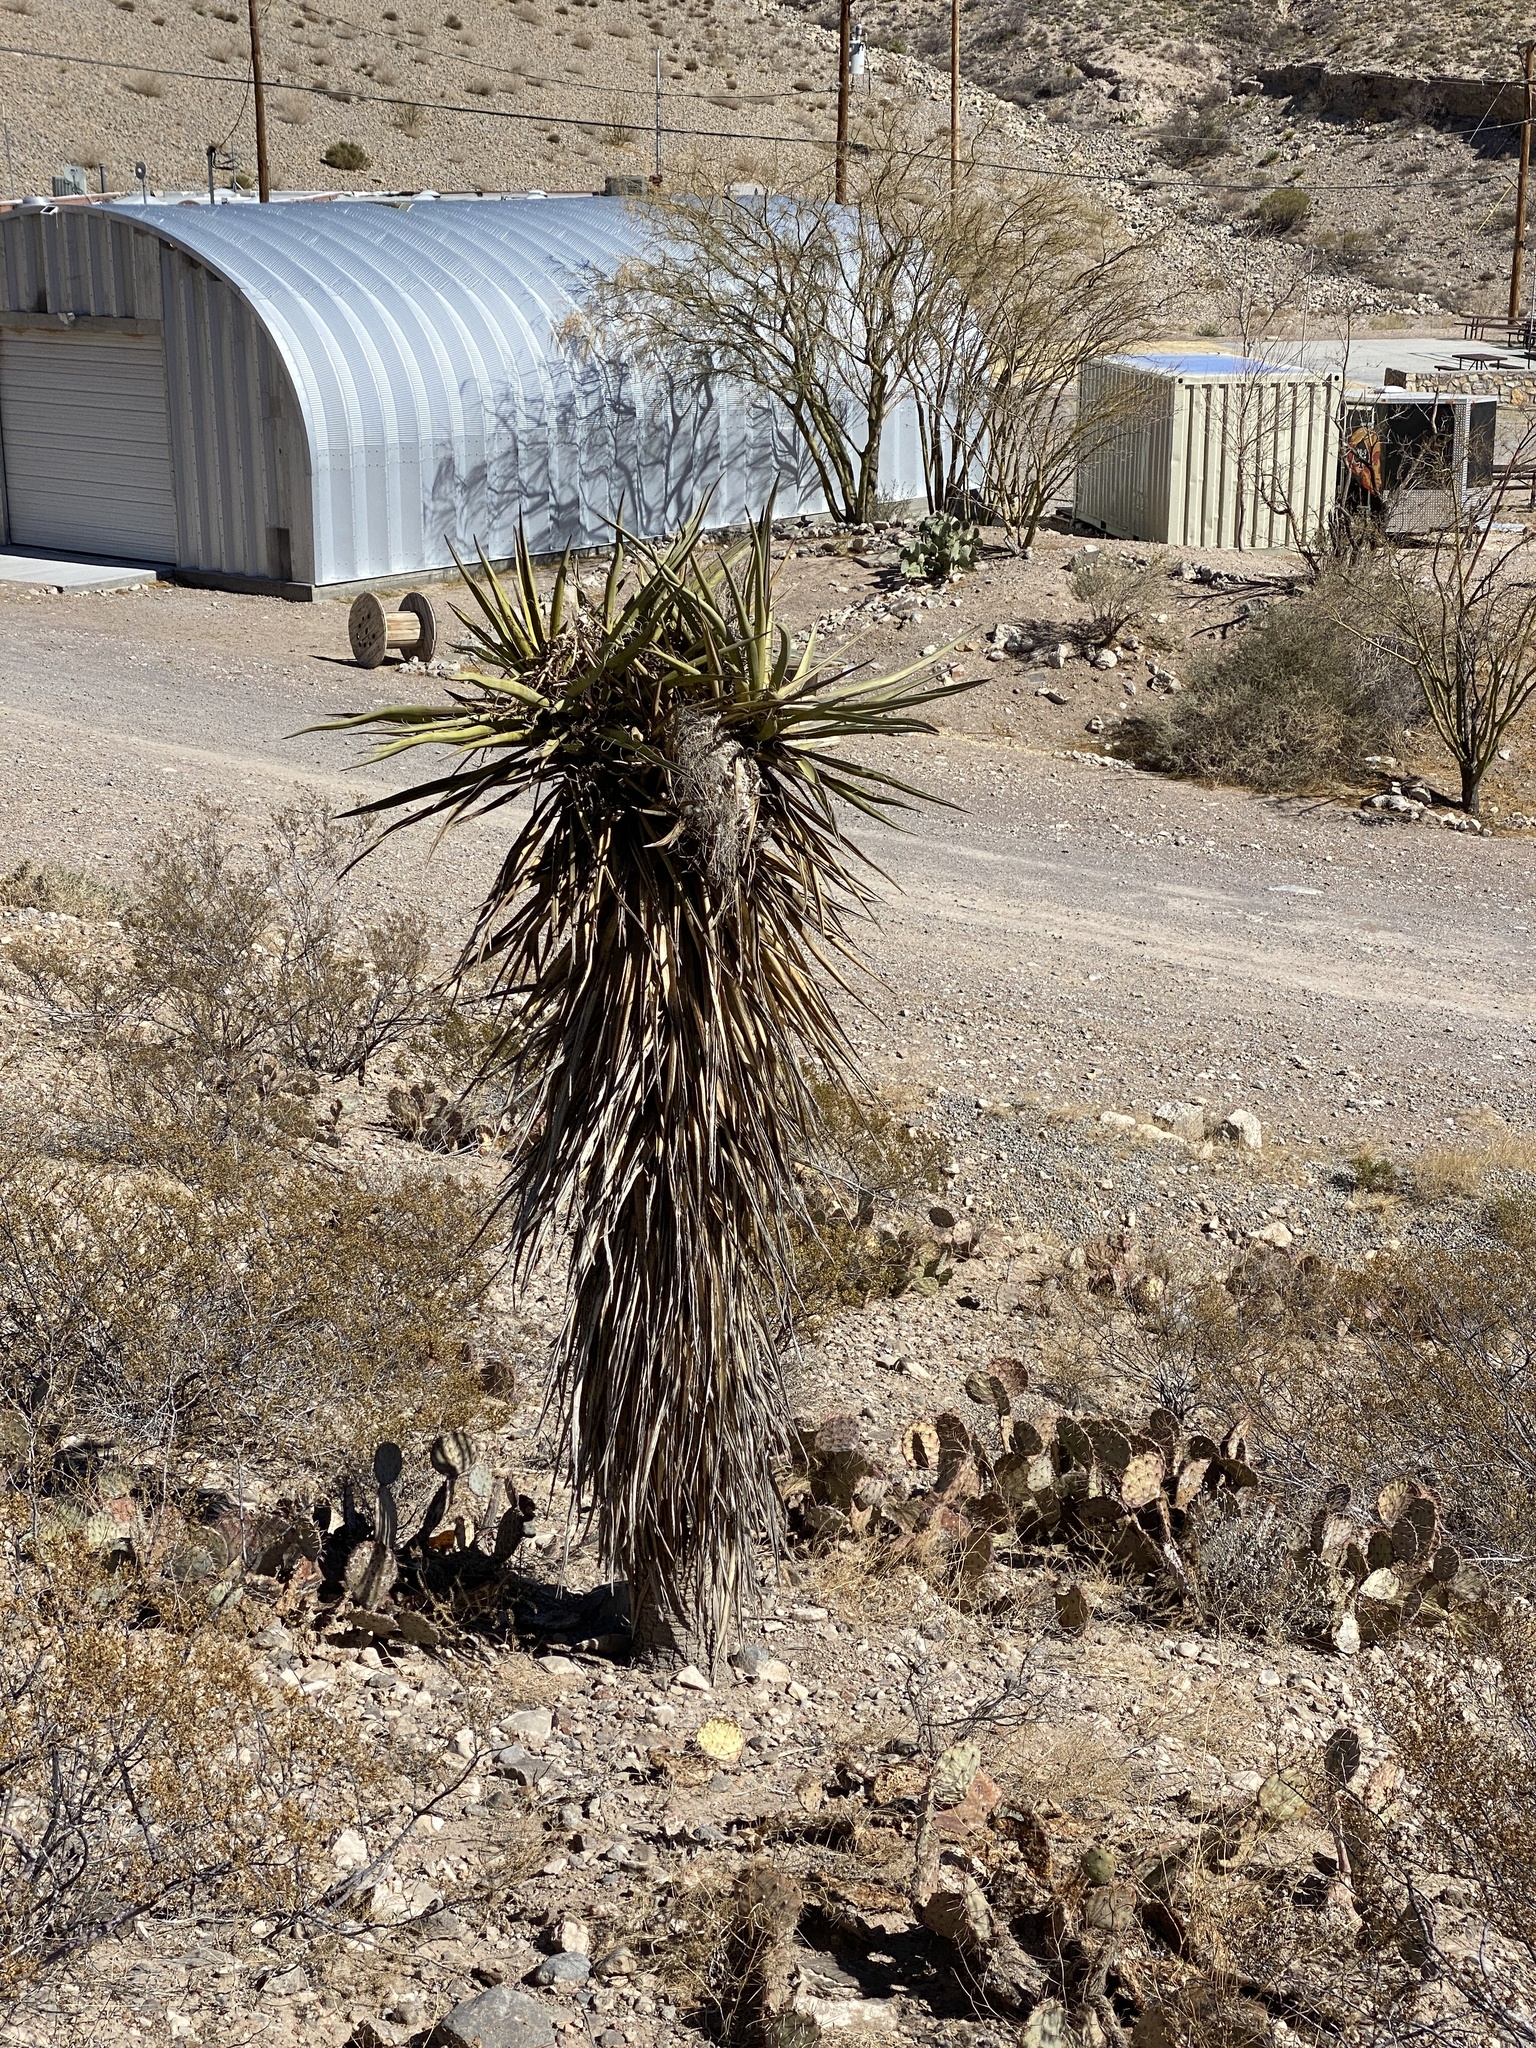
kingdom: Plantae
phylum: Tracheophyta
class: Liliopsida
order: Asparagales
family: Asparagaceae
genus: Yucca
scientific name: Yucca treculiana
